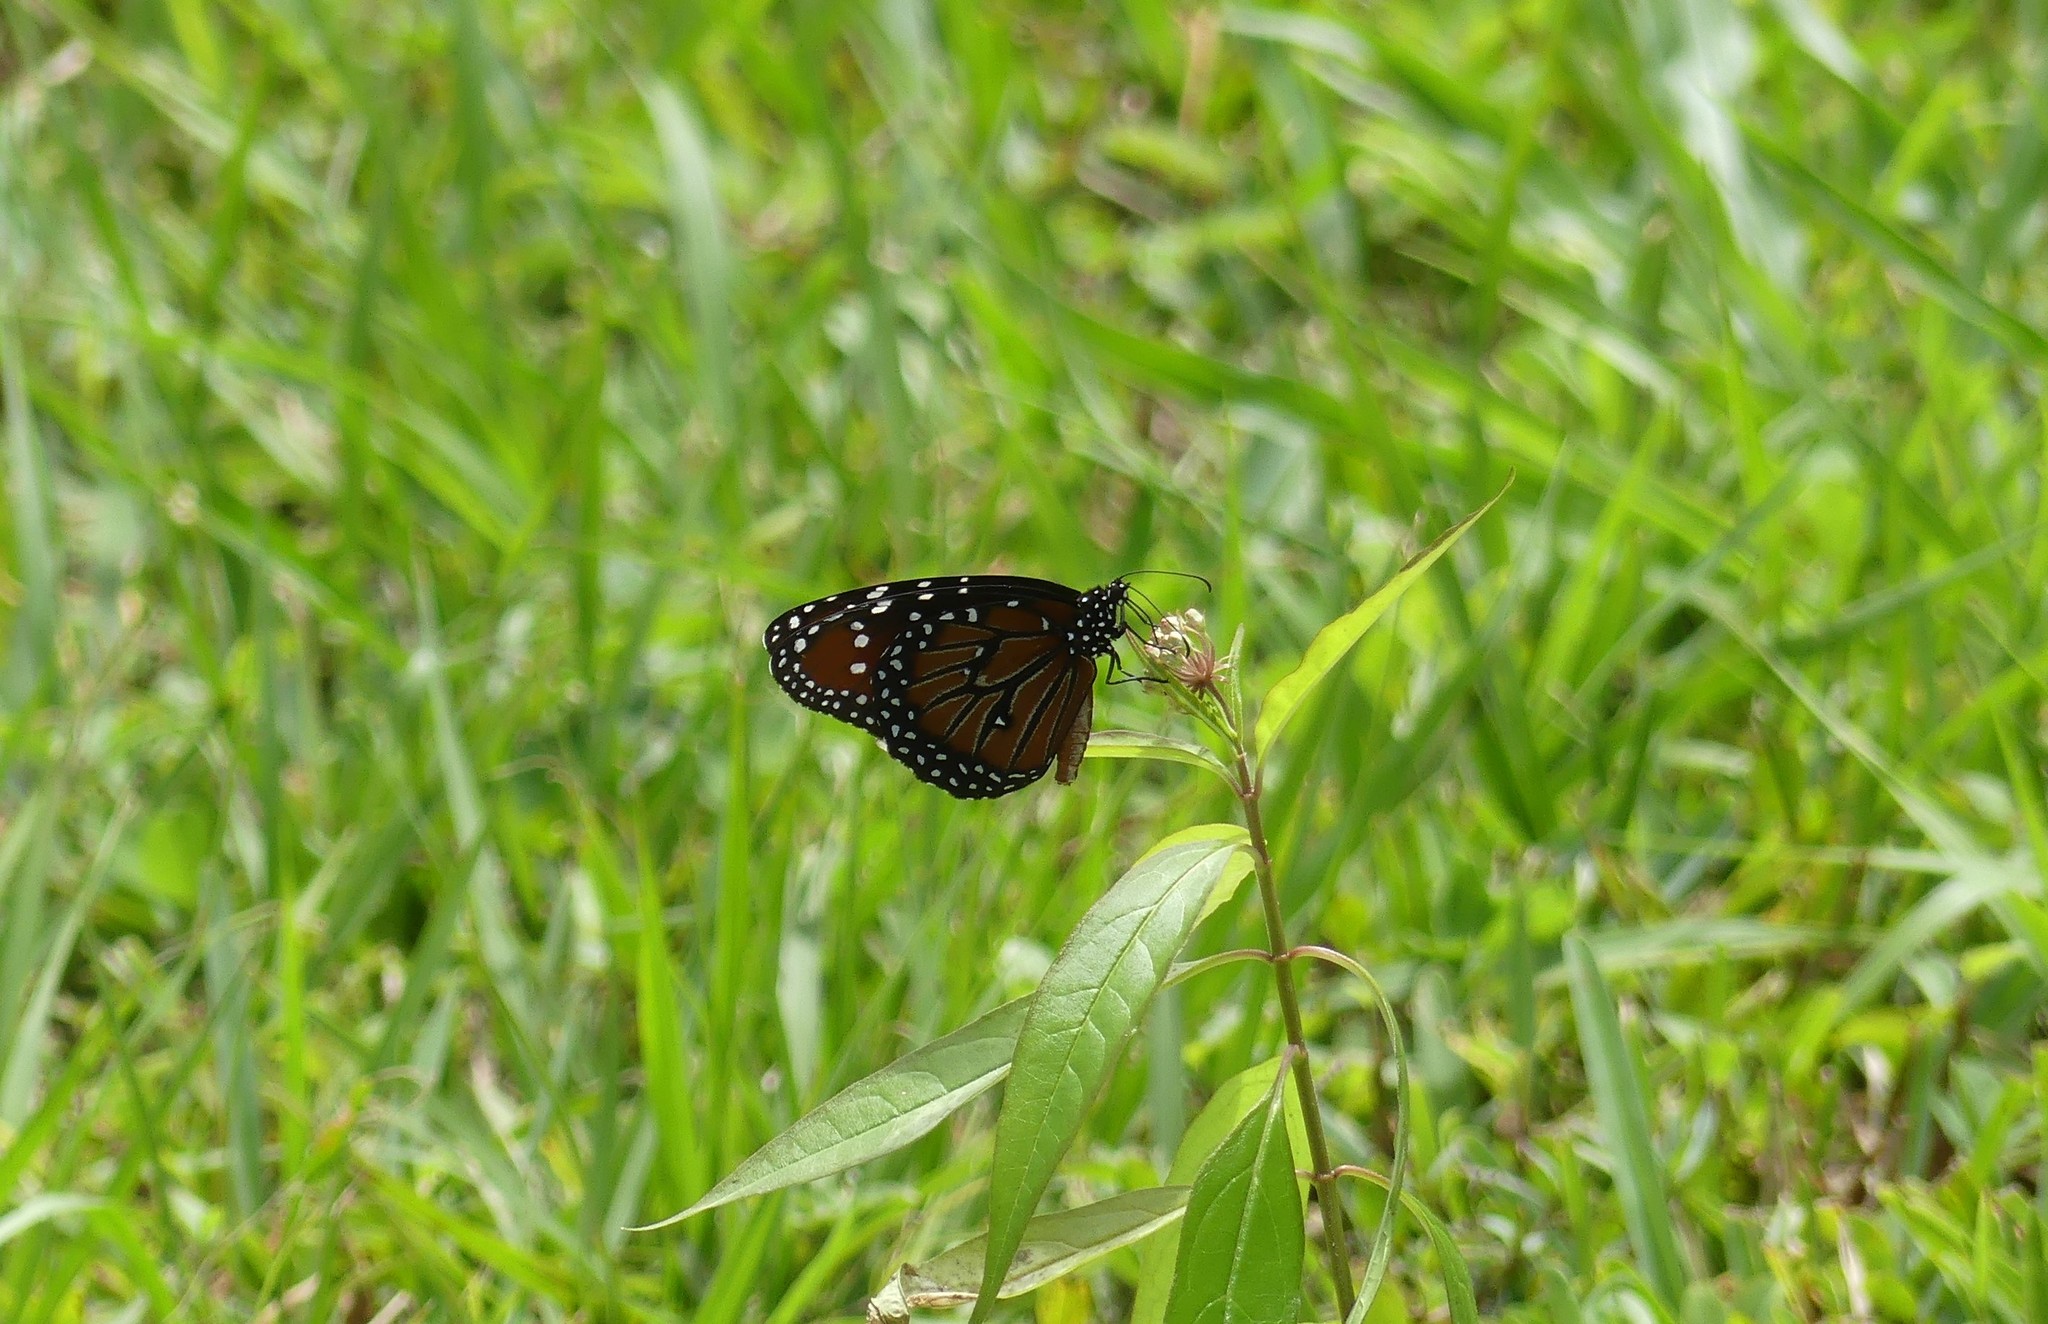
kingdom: Animalia
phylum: Arthropoda
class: Insecta
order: Lepidoptera
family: Nymphalidae
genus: Danaus
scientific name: Danaus gilippus
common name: Queen
